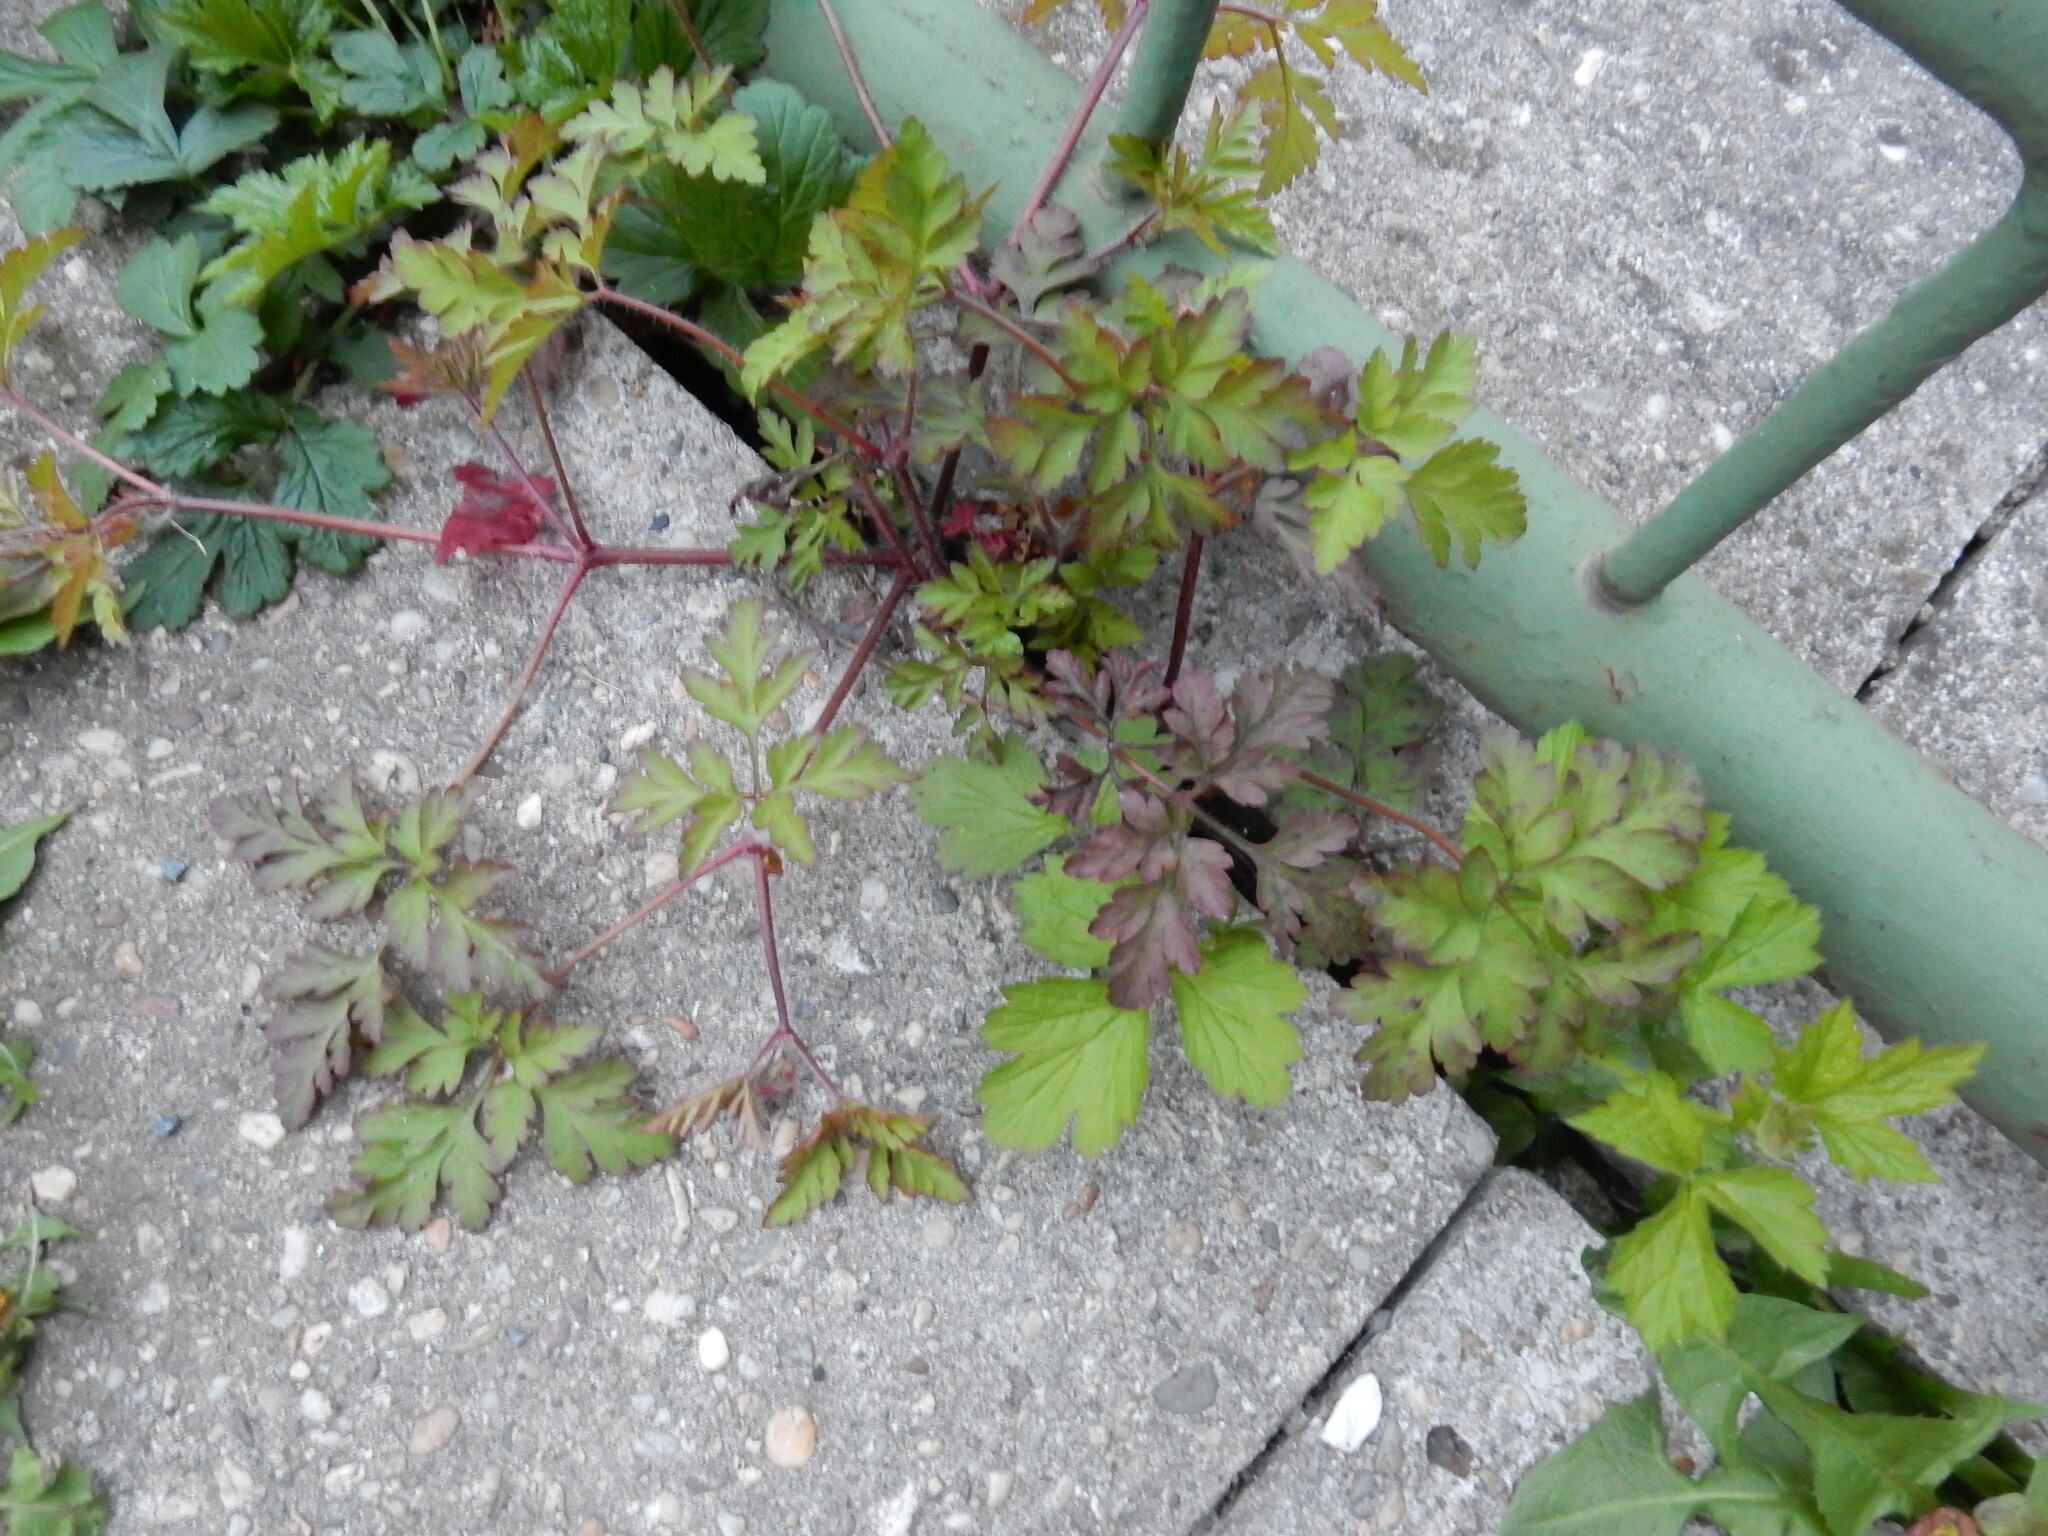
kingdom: Plantae
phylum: Tracheophyta
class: Magnoliopsida
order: Geraniales
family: Geraniaceae
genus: Geranium
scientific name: Geranium robertianum
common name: Herb-robert
